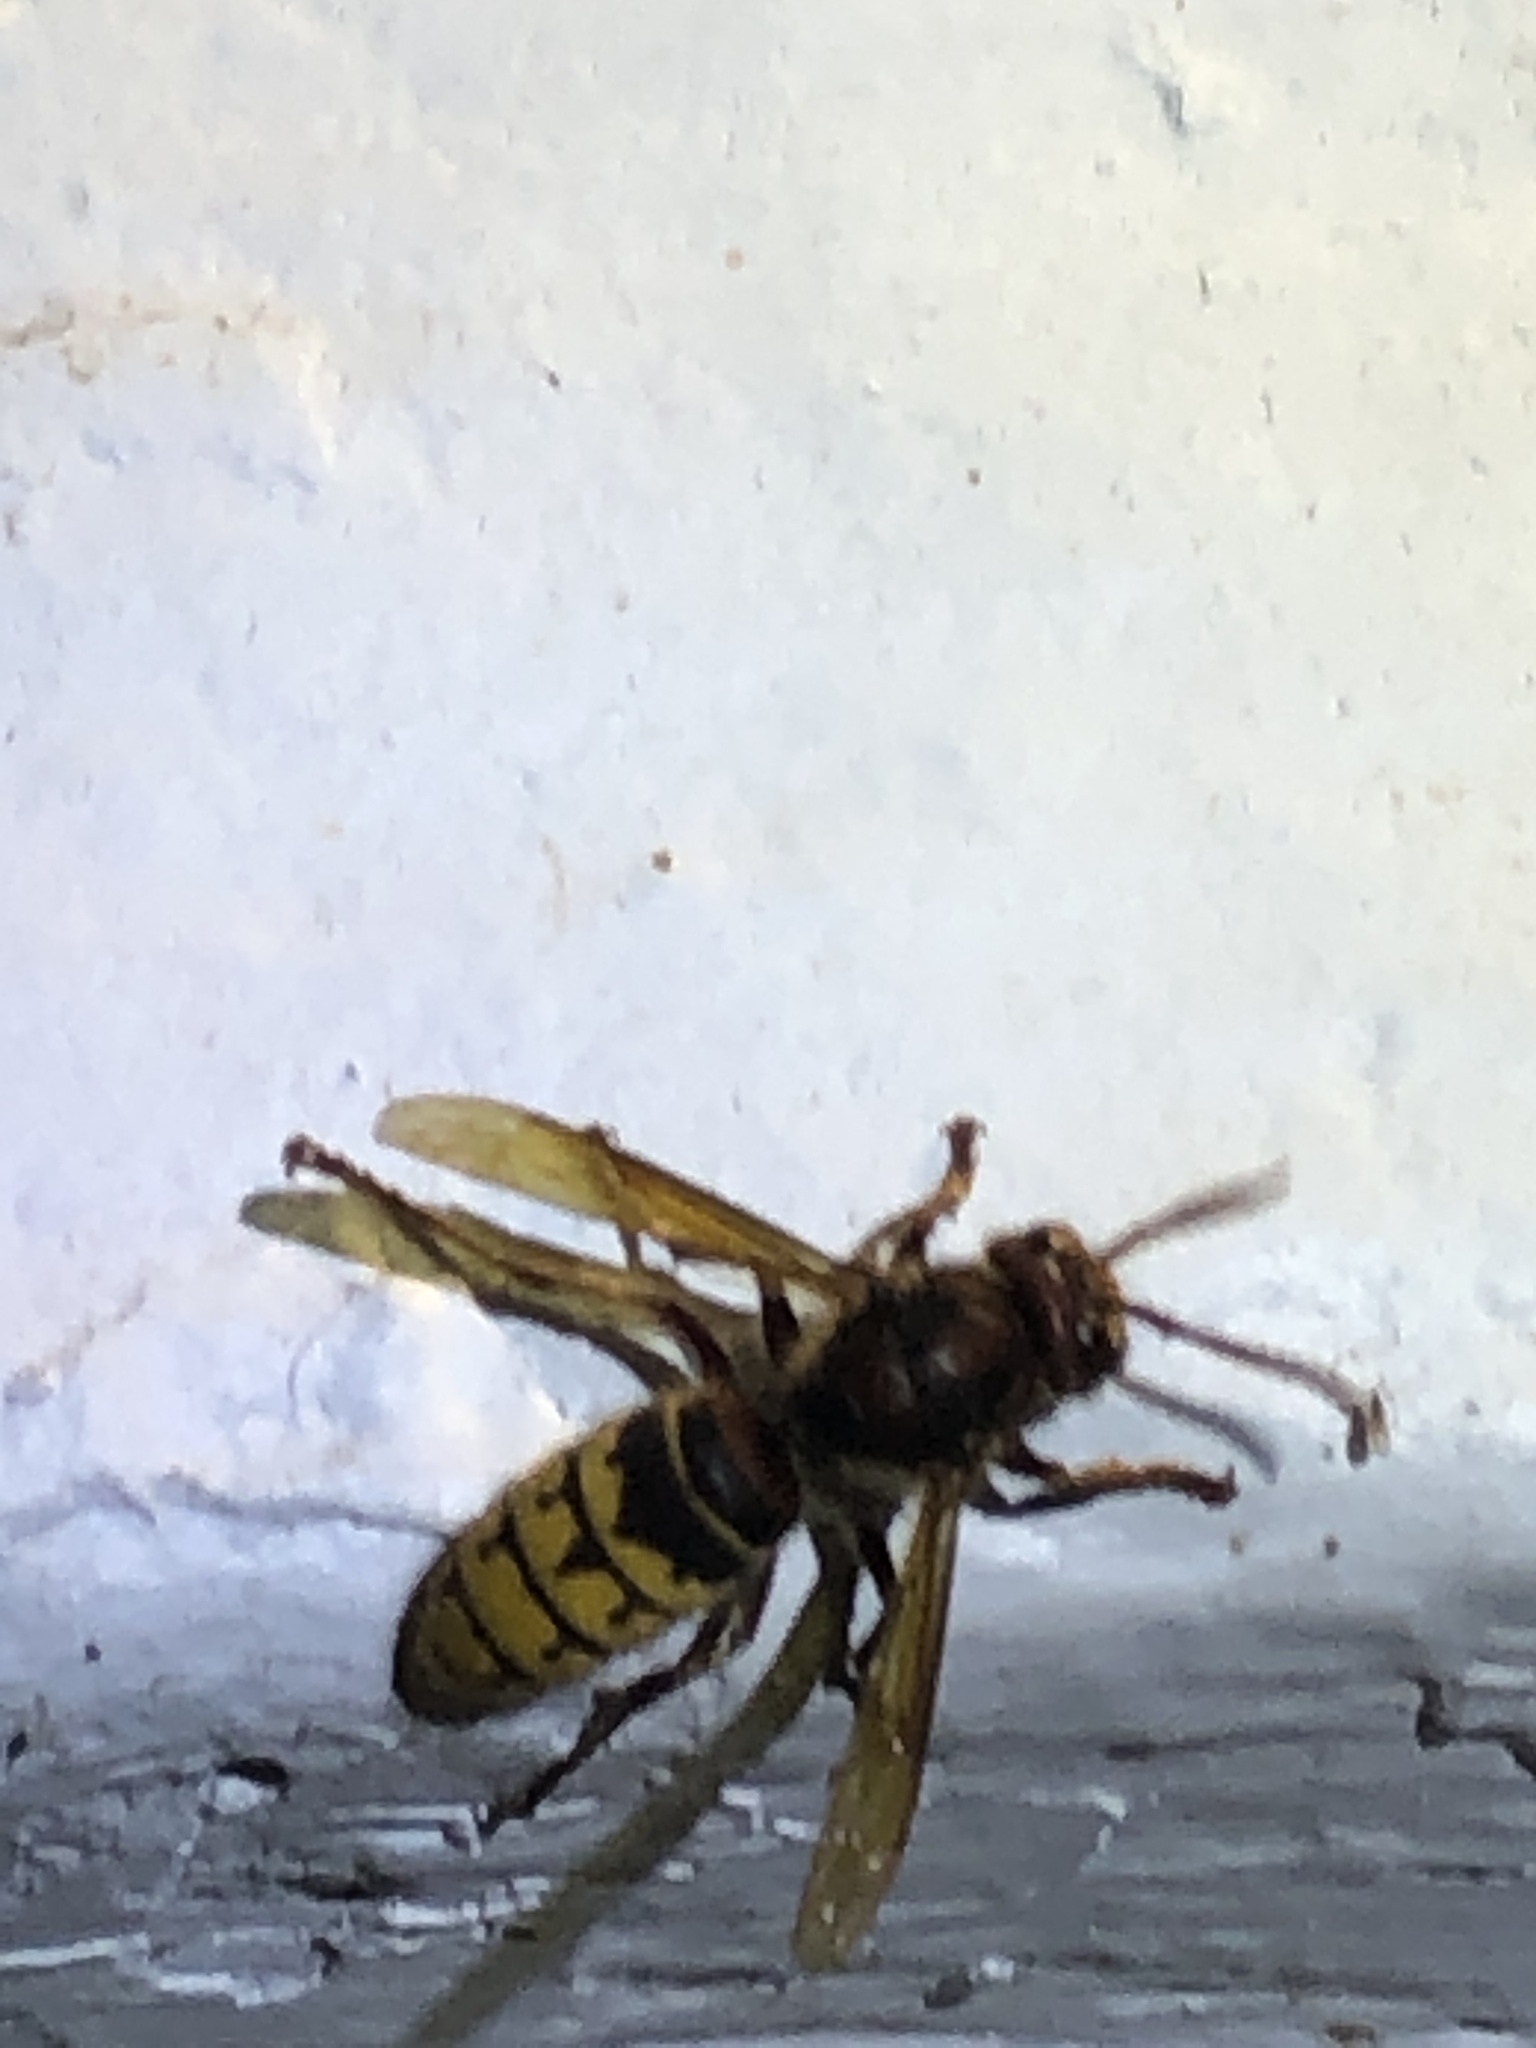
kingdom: Animalia
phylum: Arthropoda
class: Insecta
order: Hymenoptera
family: Vespidae
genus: Vespa
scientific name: Vespa crabro
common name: Hornet
